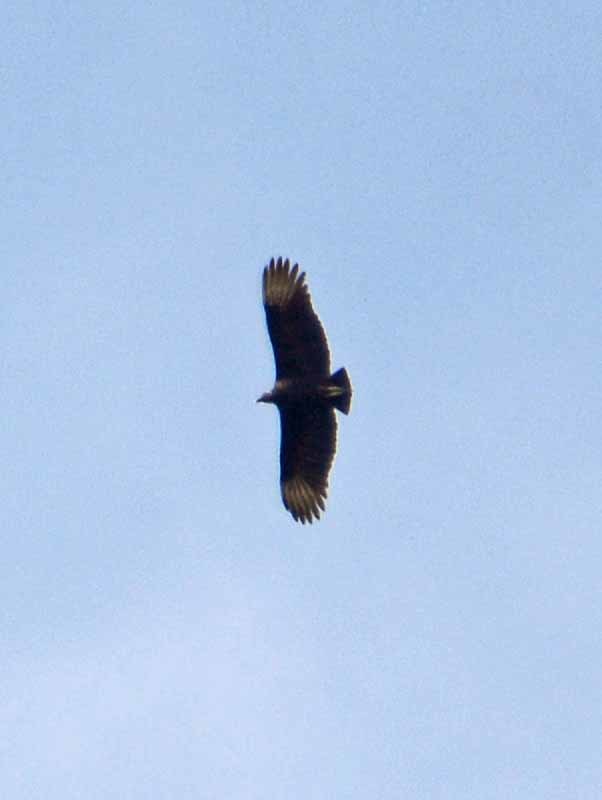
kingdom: Animalia
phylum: Chordata
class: Aves
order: Accipitriformes
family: Cathartidae
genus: Coragyps
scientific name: Coragyps atratus
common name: Black vulture
